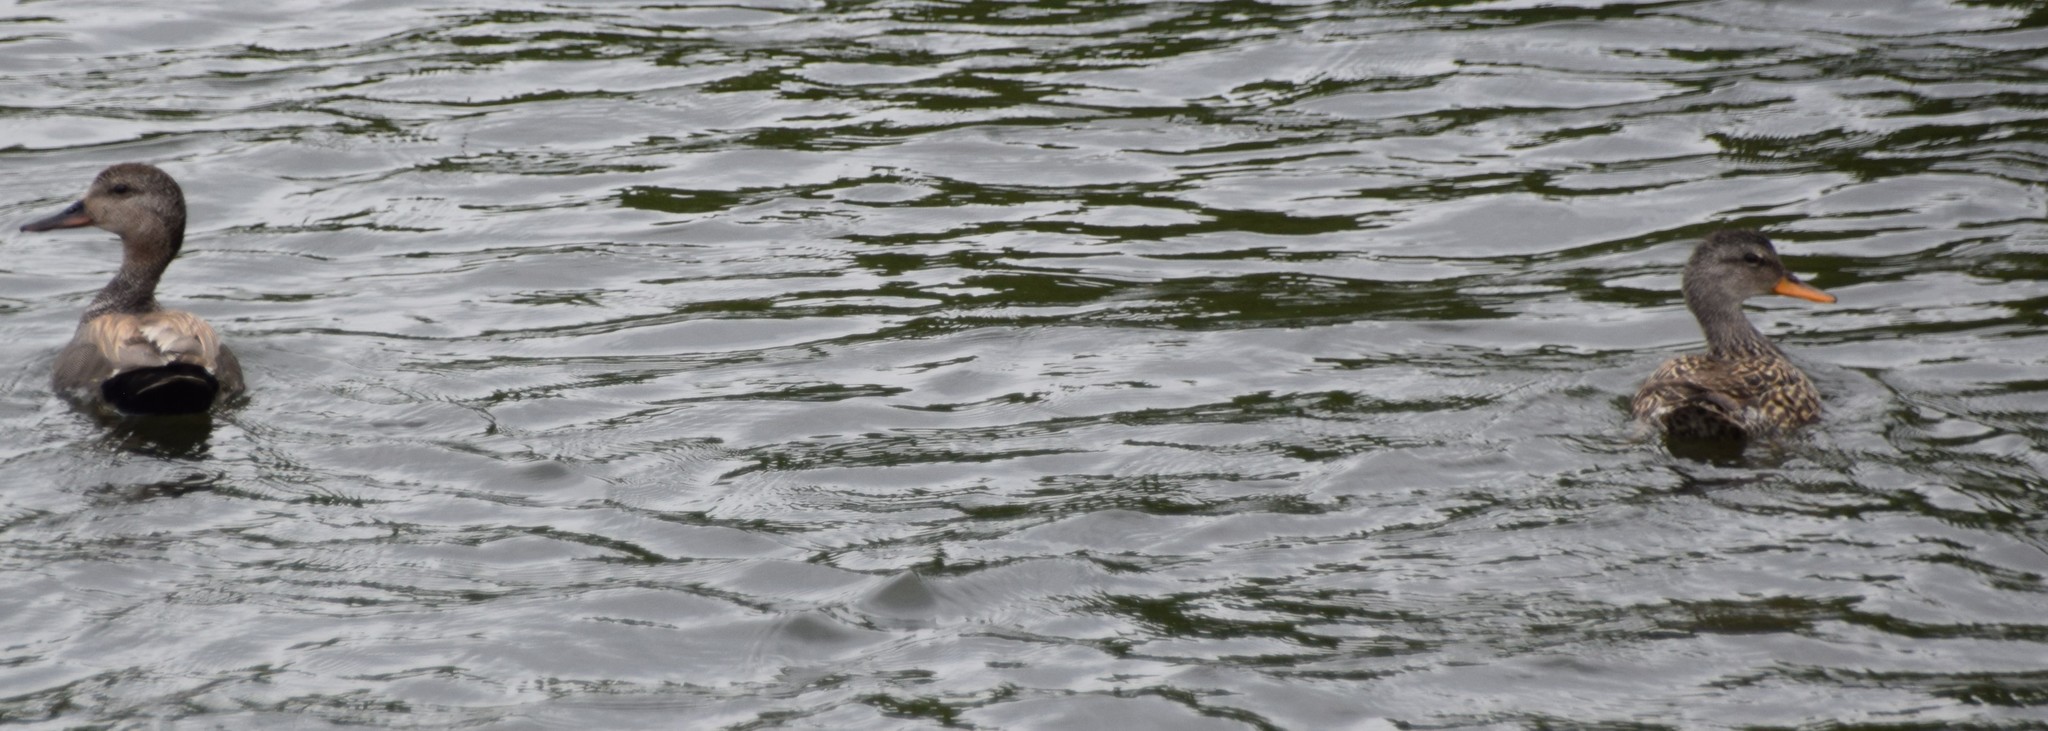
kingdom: Animalia
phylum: Chordata
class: Aves
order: Anseriformes
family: Anatidae
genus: Mareca
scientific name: Mareca strepera
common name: Gadwall
